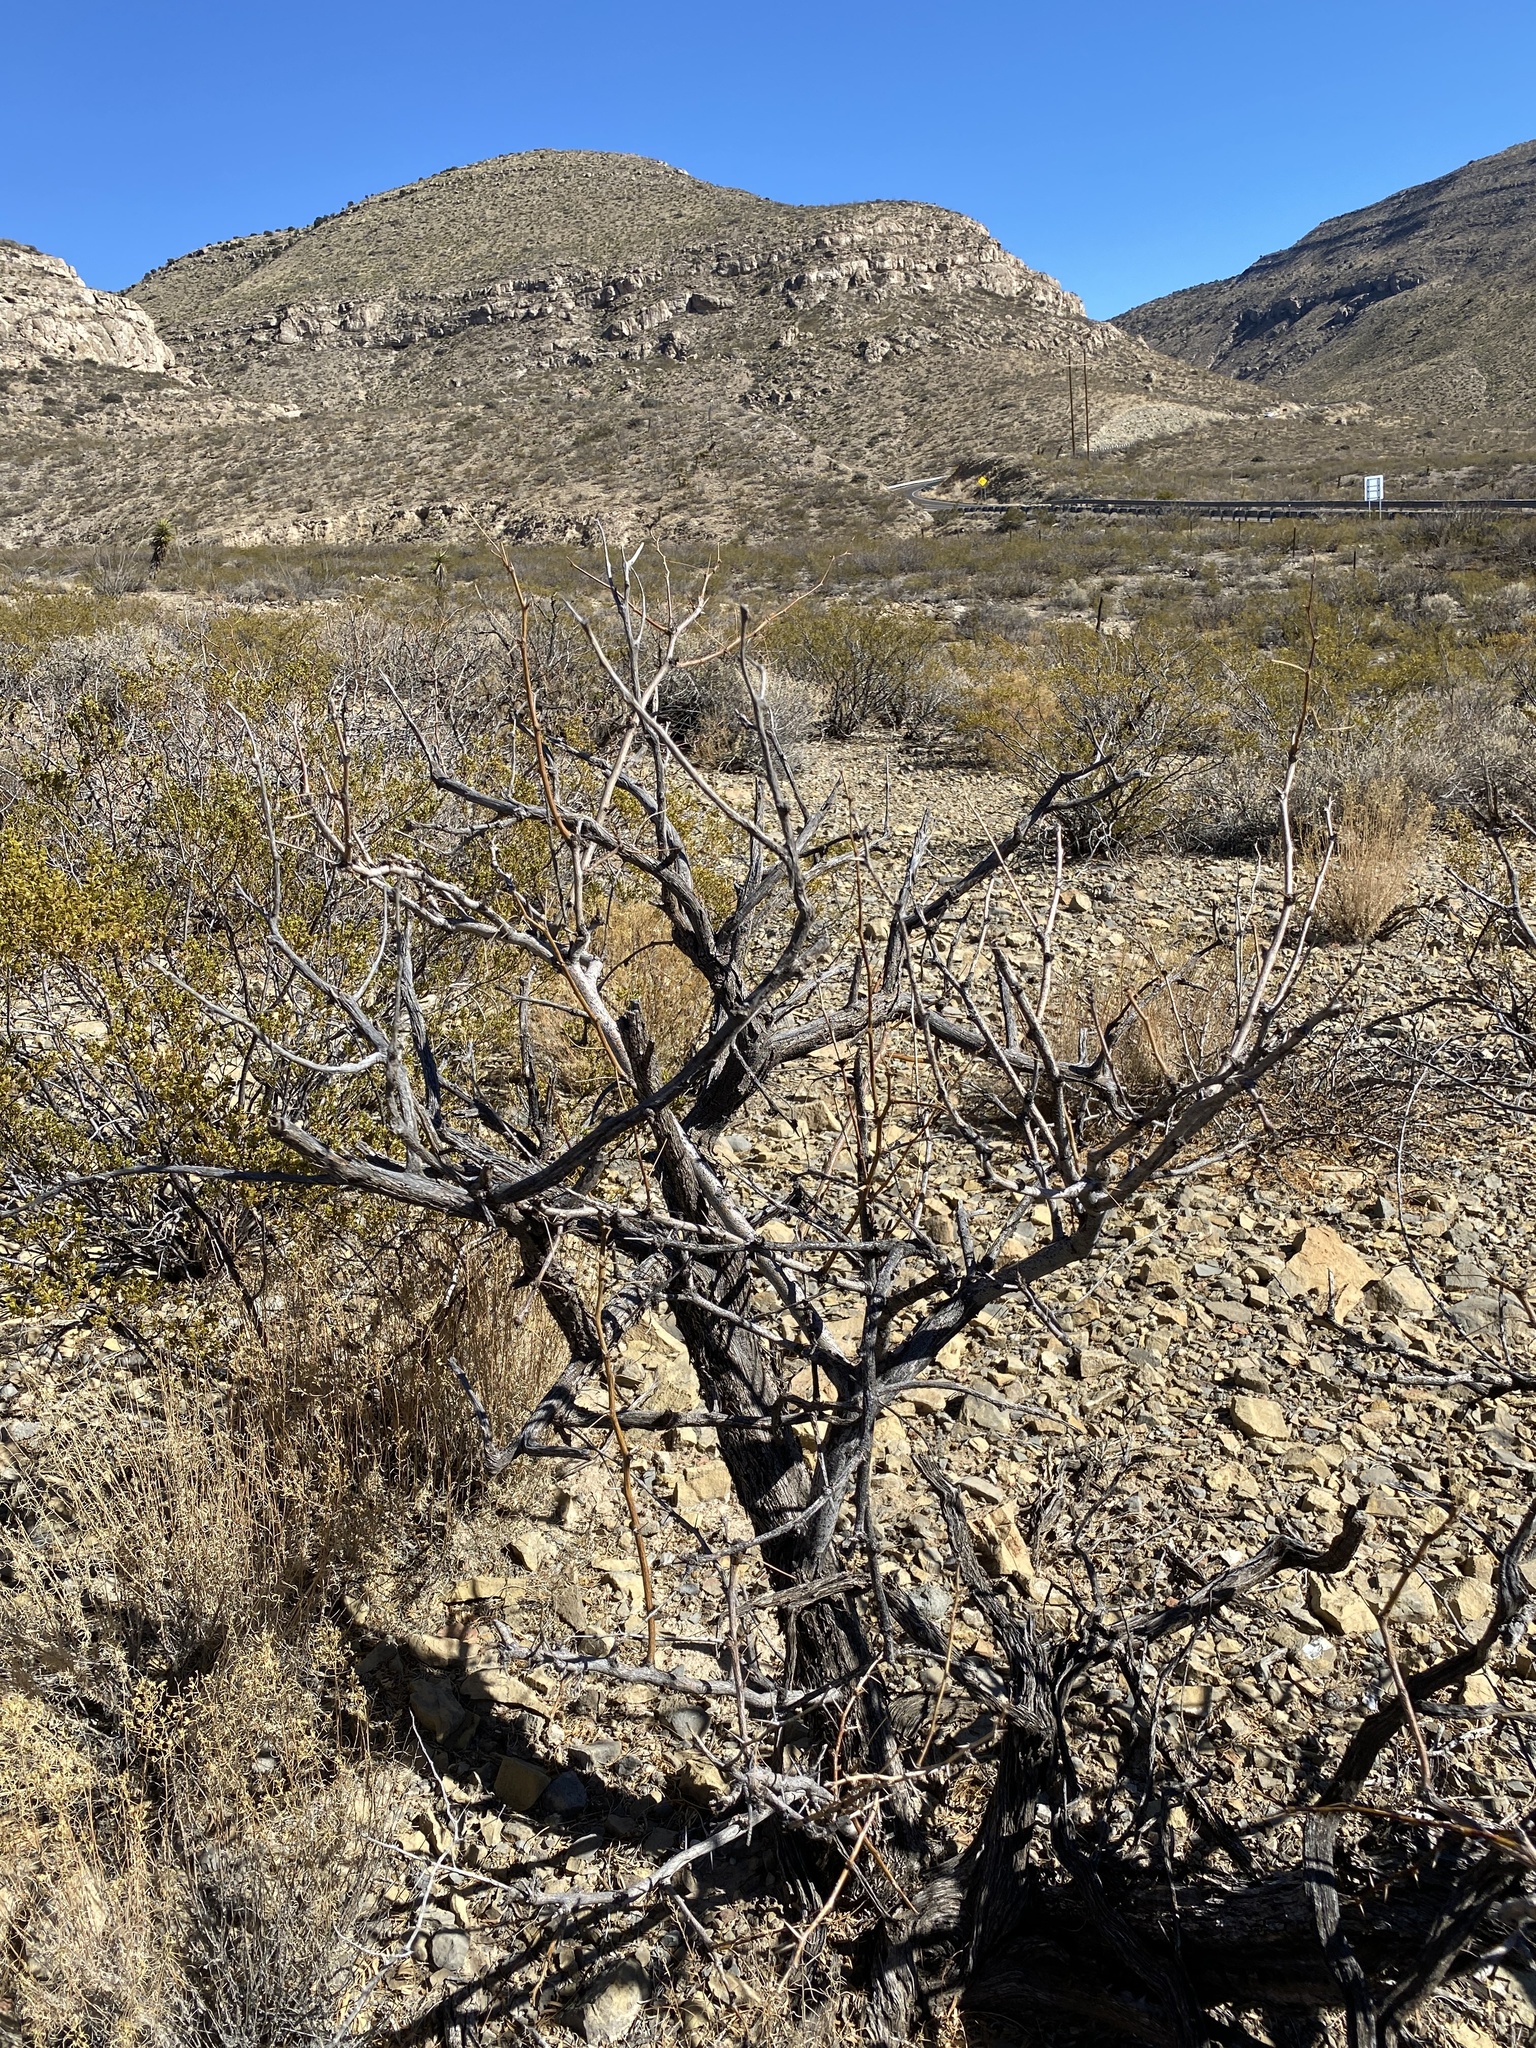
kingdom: Plantae
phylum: Tracheophyta
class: Magnoliopsida
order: Fabales
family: Fabaceae
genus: Prosopis
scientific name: Prosopis glandulosa
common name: Honey mesquite
